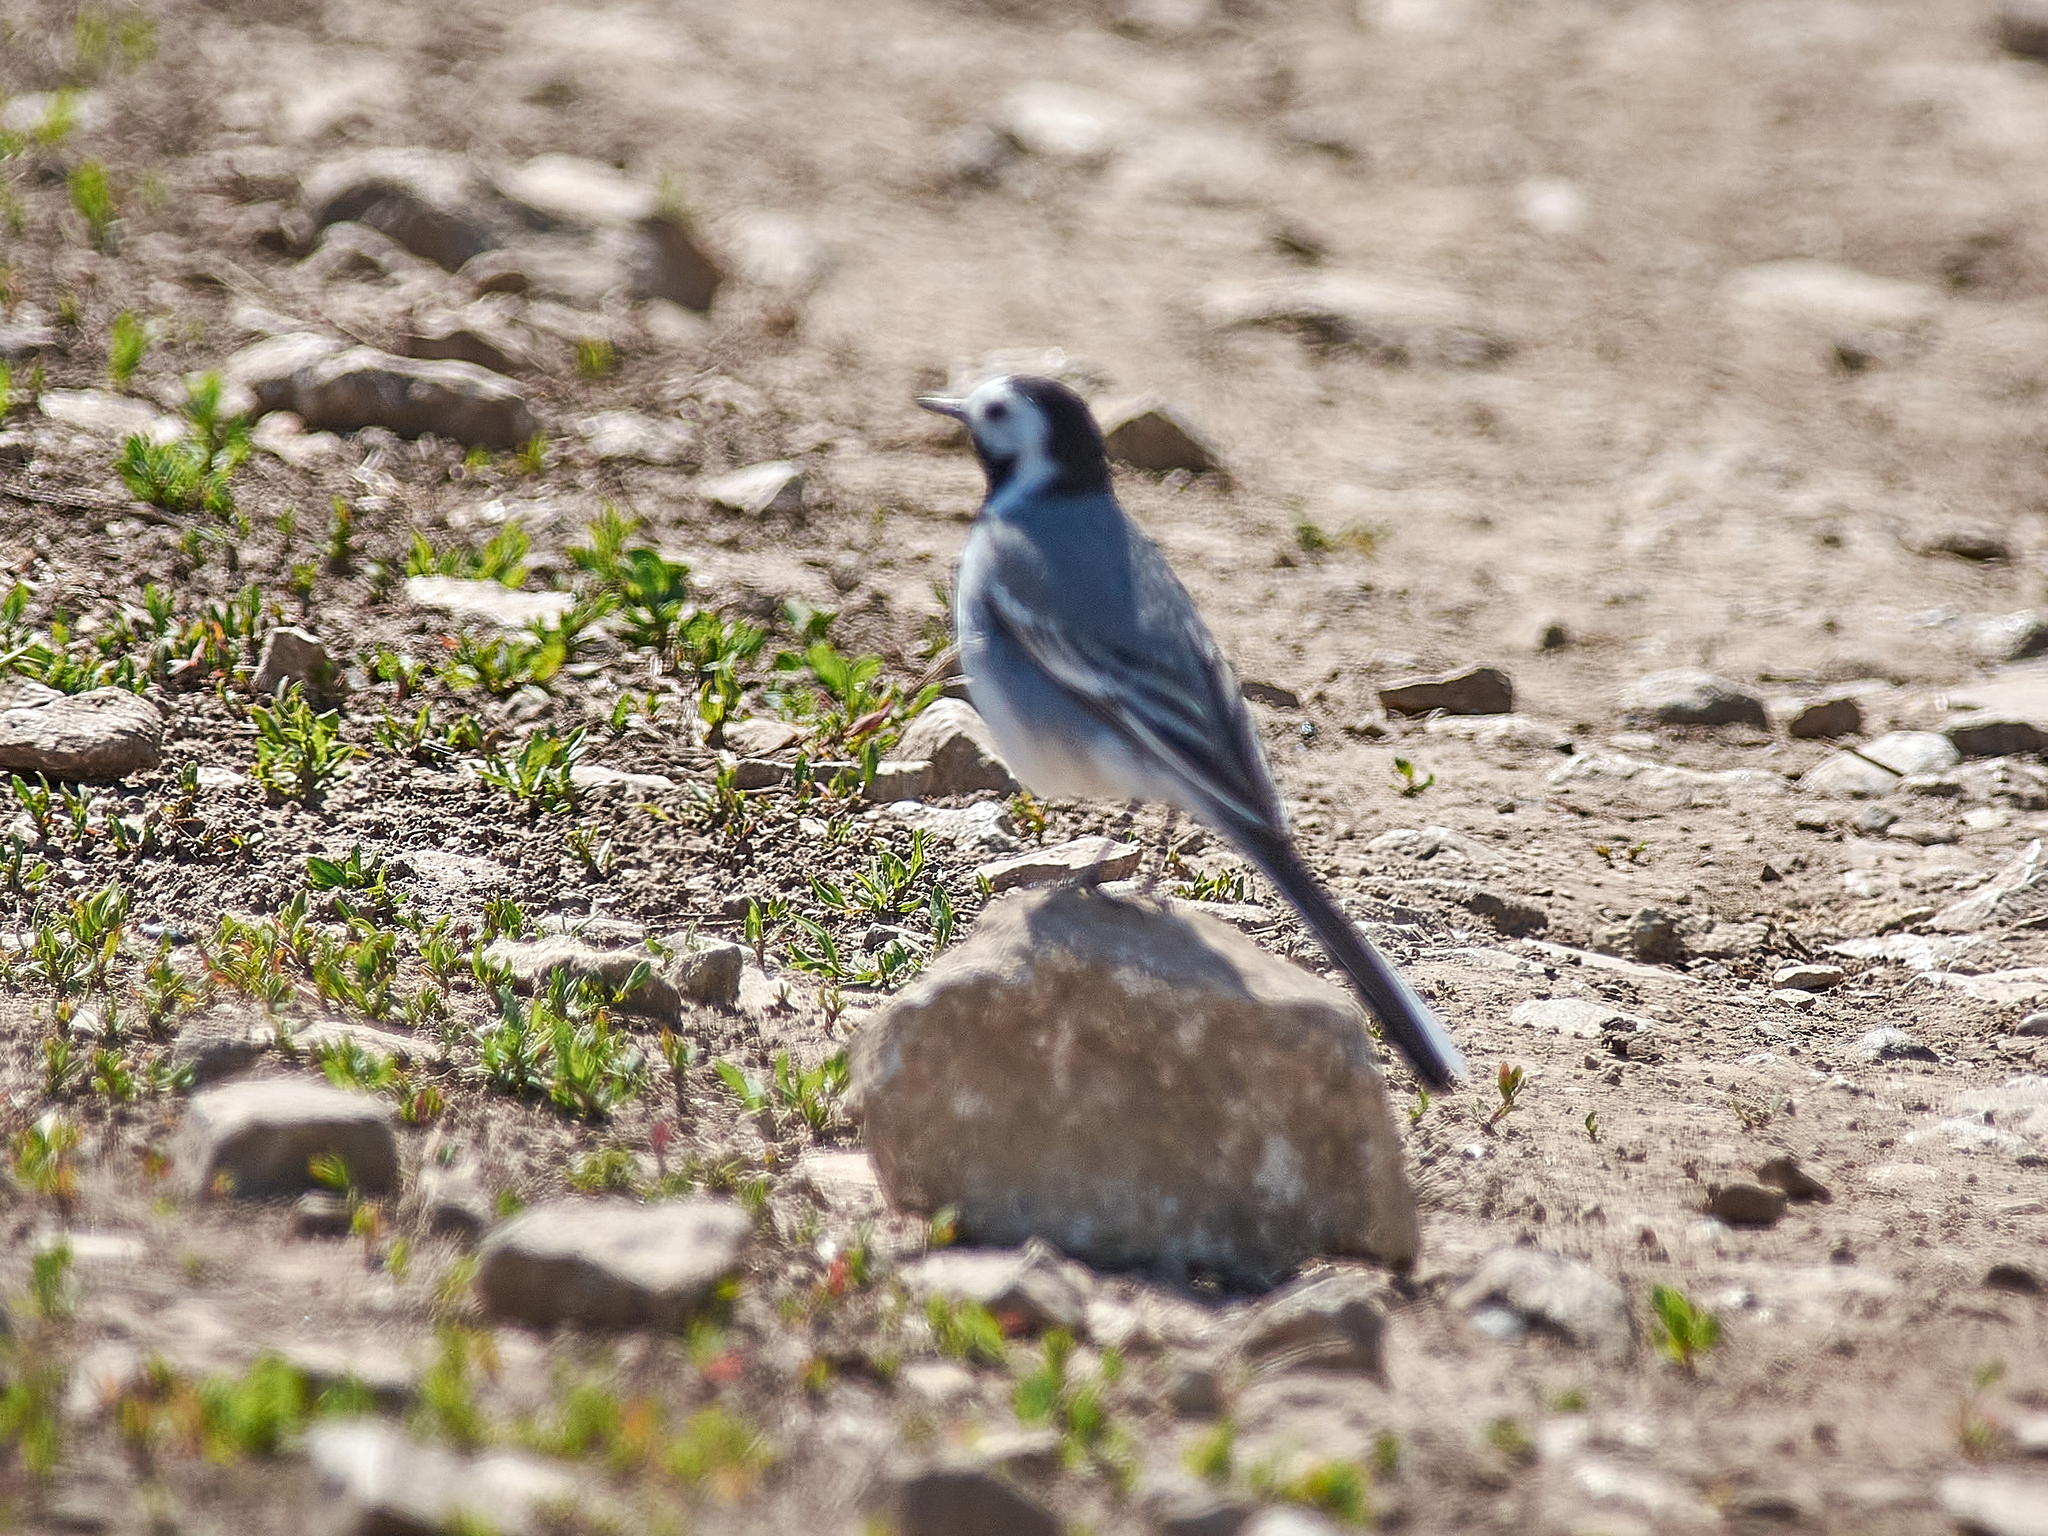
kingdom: Animalia
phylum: Chordata
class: Aves
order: Passeriformes
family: Motacillidae
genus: Motacilla
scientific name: Motacilla alba
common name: White wagtail
